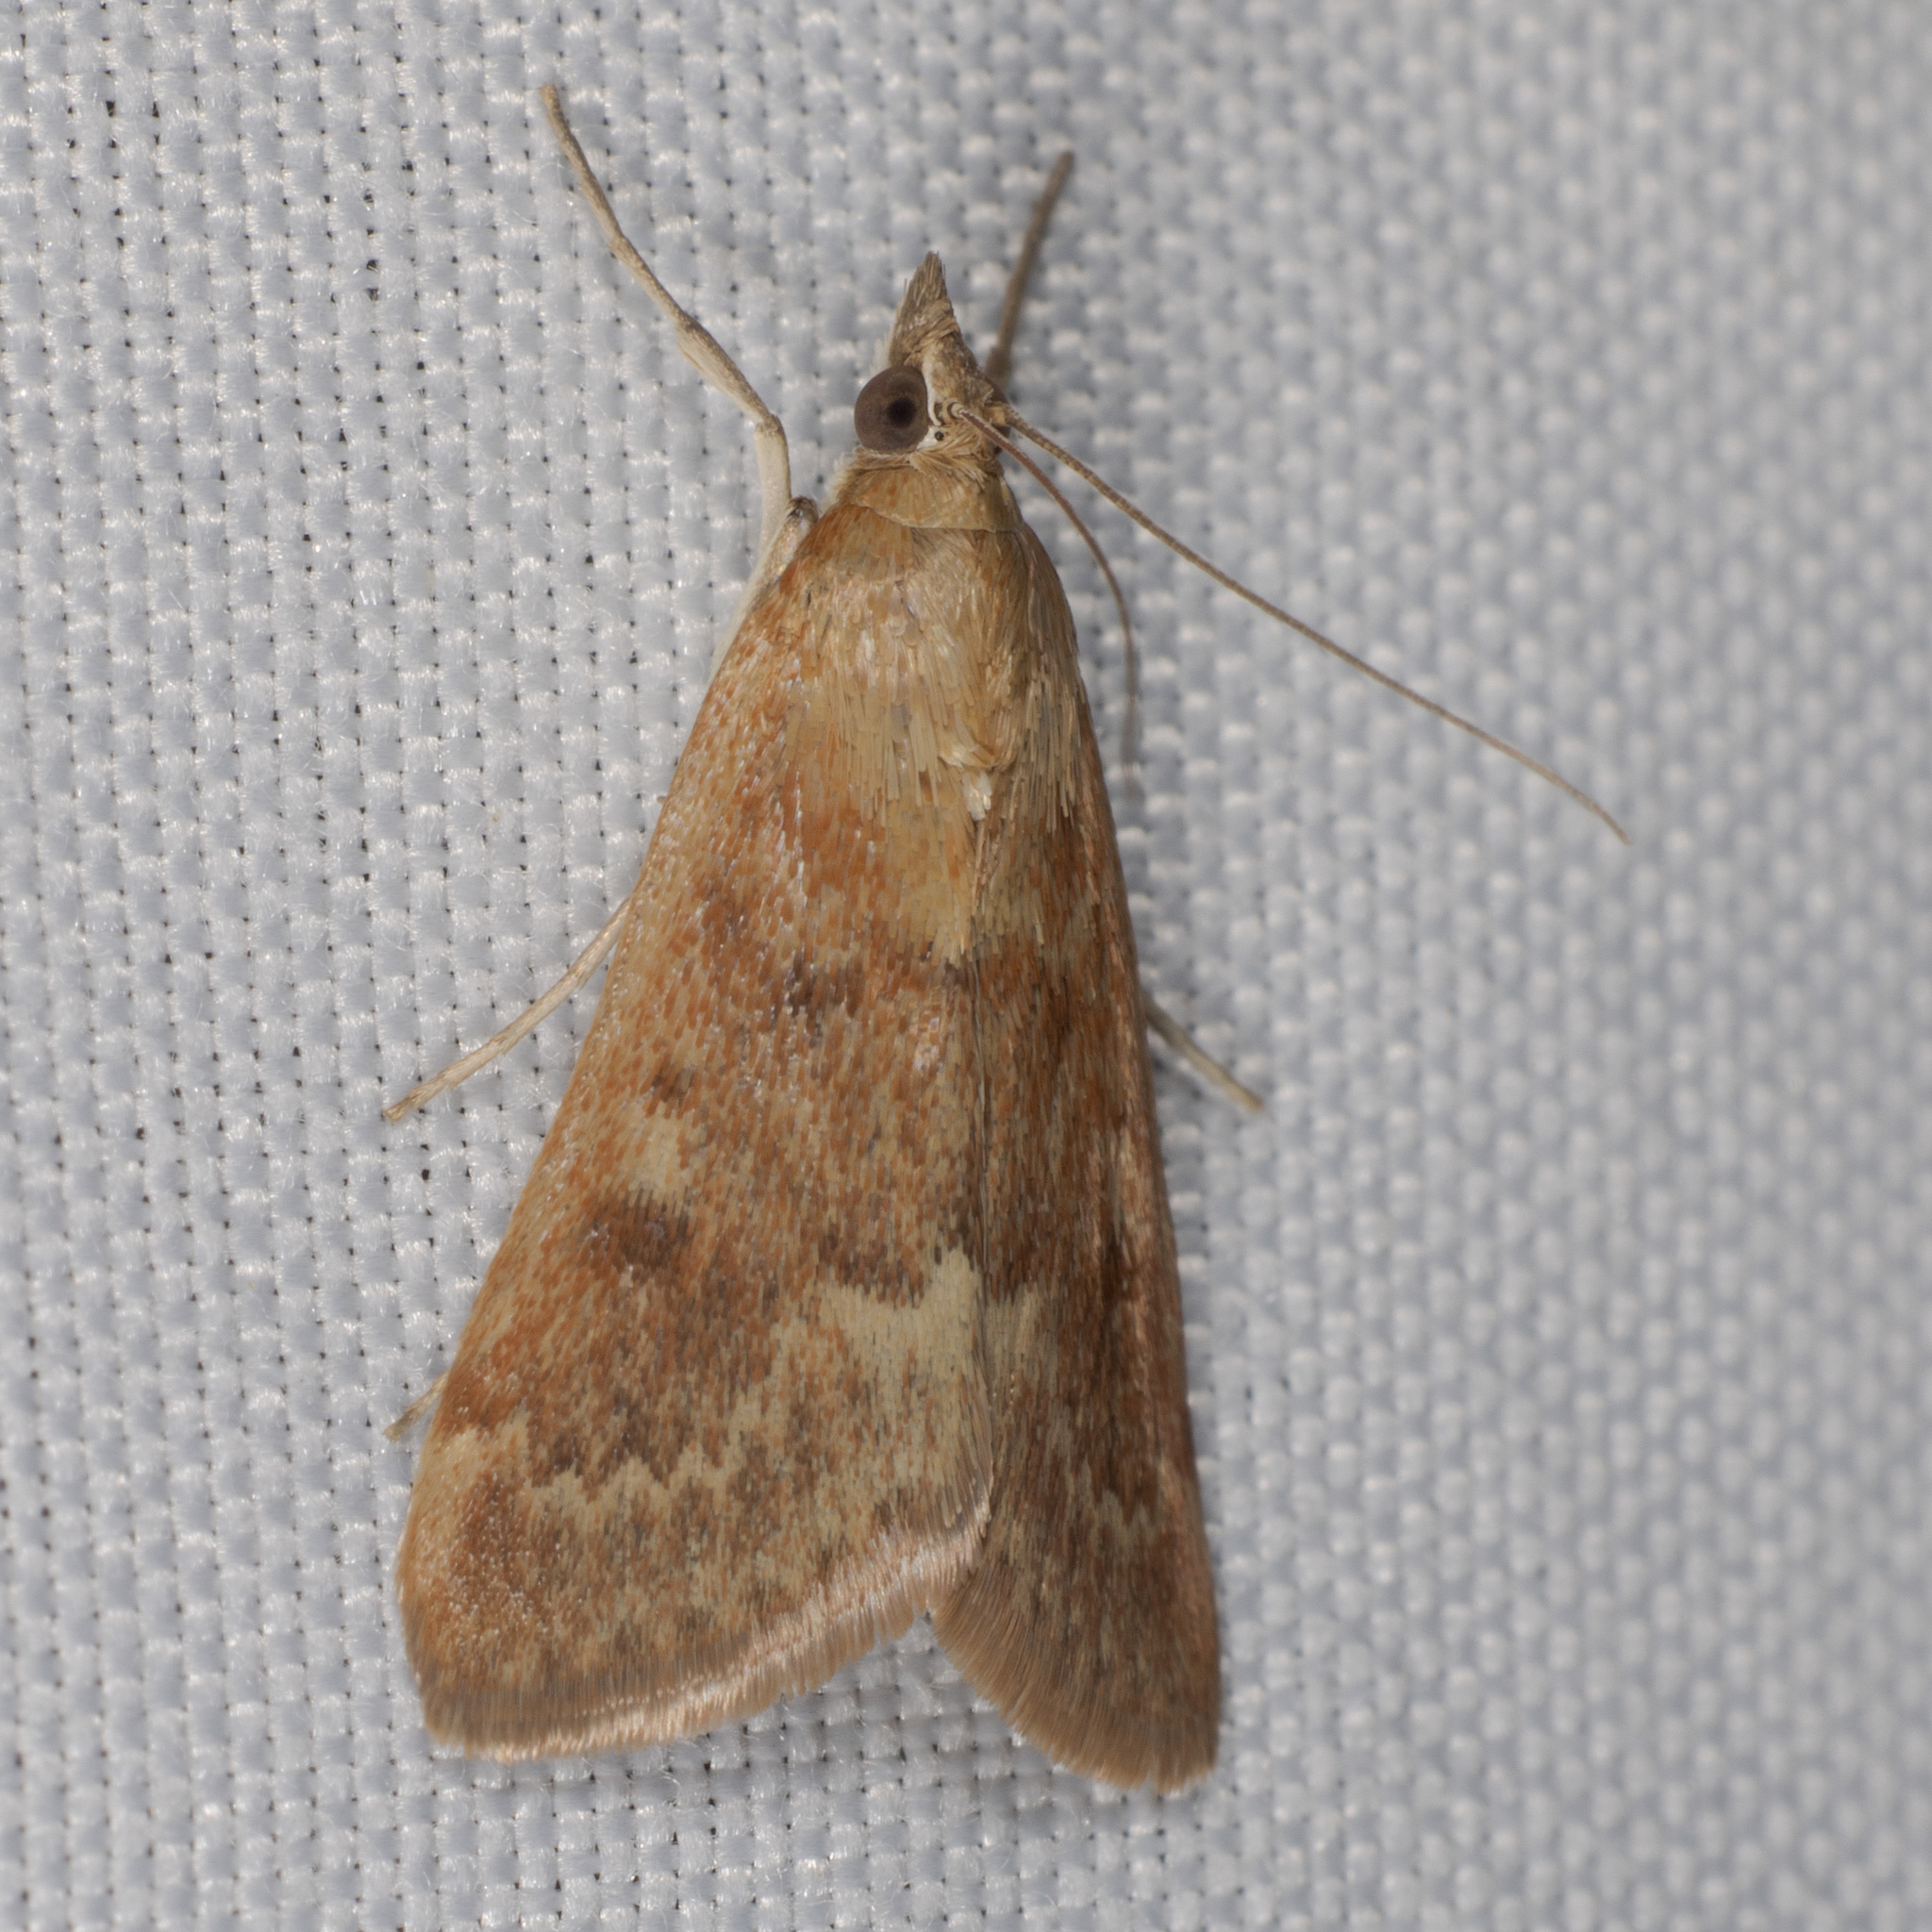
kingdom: Animalia
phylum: Arthropoda
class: Insecta
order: Lepidoptera
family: Crambidae
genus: Achyra
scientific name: Achyra rantalis
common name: Garden webworm
